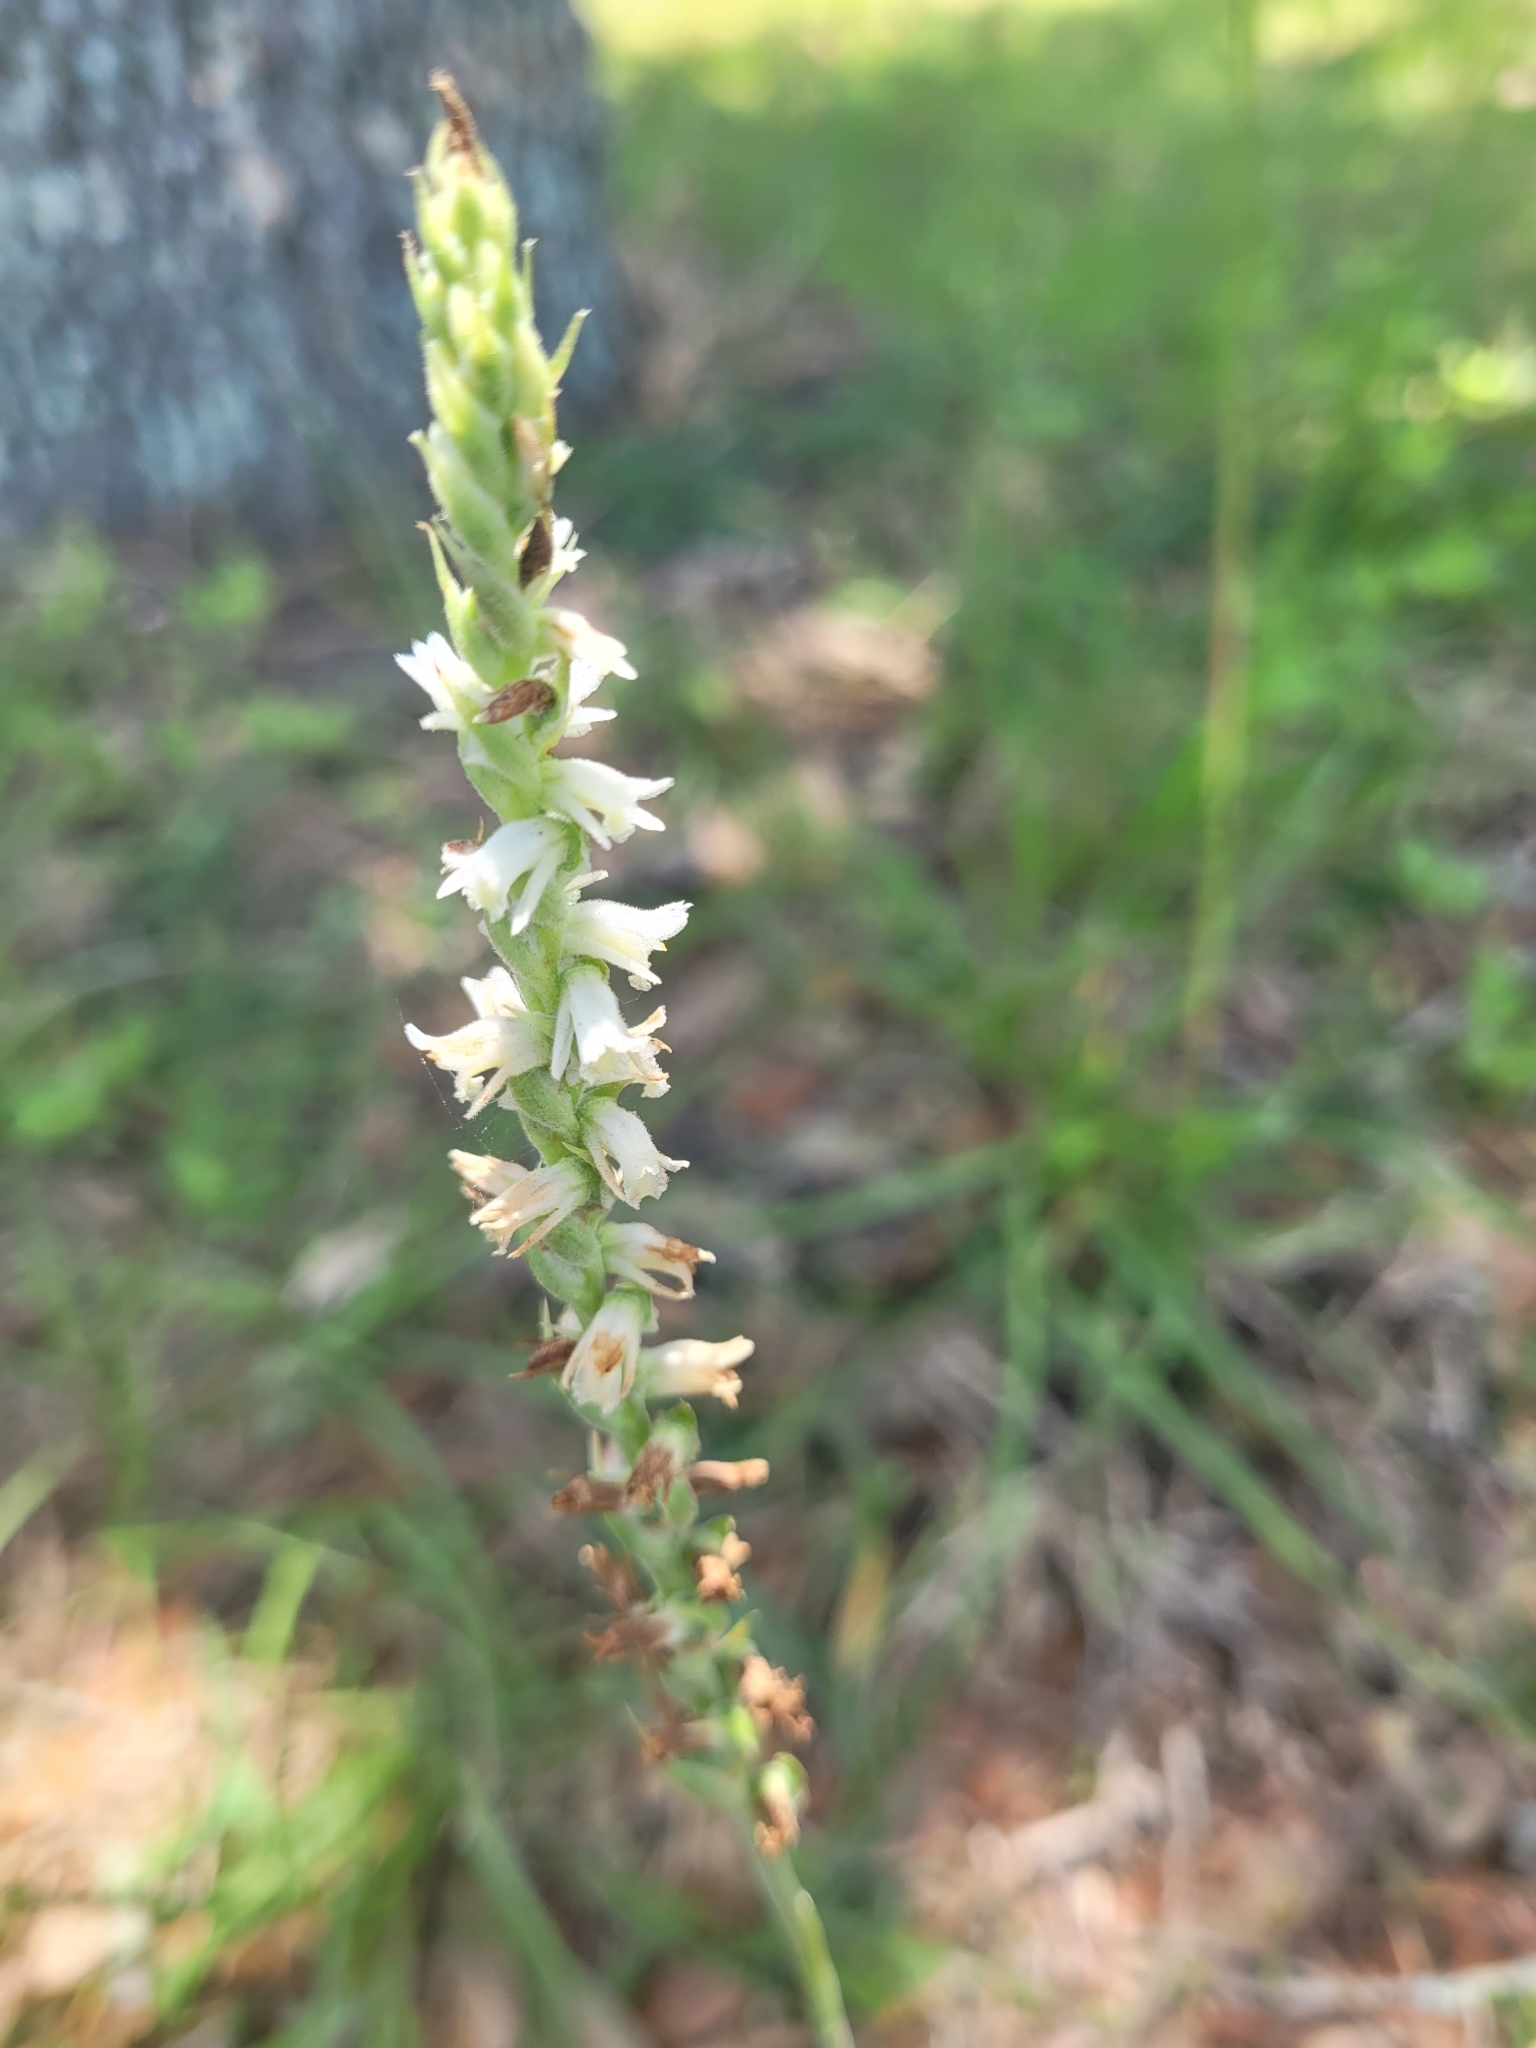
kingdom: Plantae
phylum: Tracheophyta
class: Liliopsida
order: Asparagales
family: Orchidaceae
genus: Spiranthes
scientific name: Spiranthes vernalis
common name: Spring ladies'-tresses
